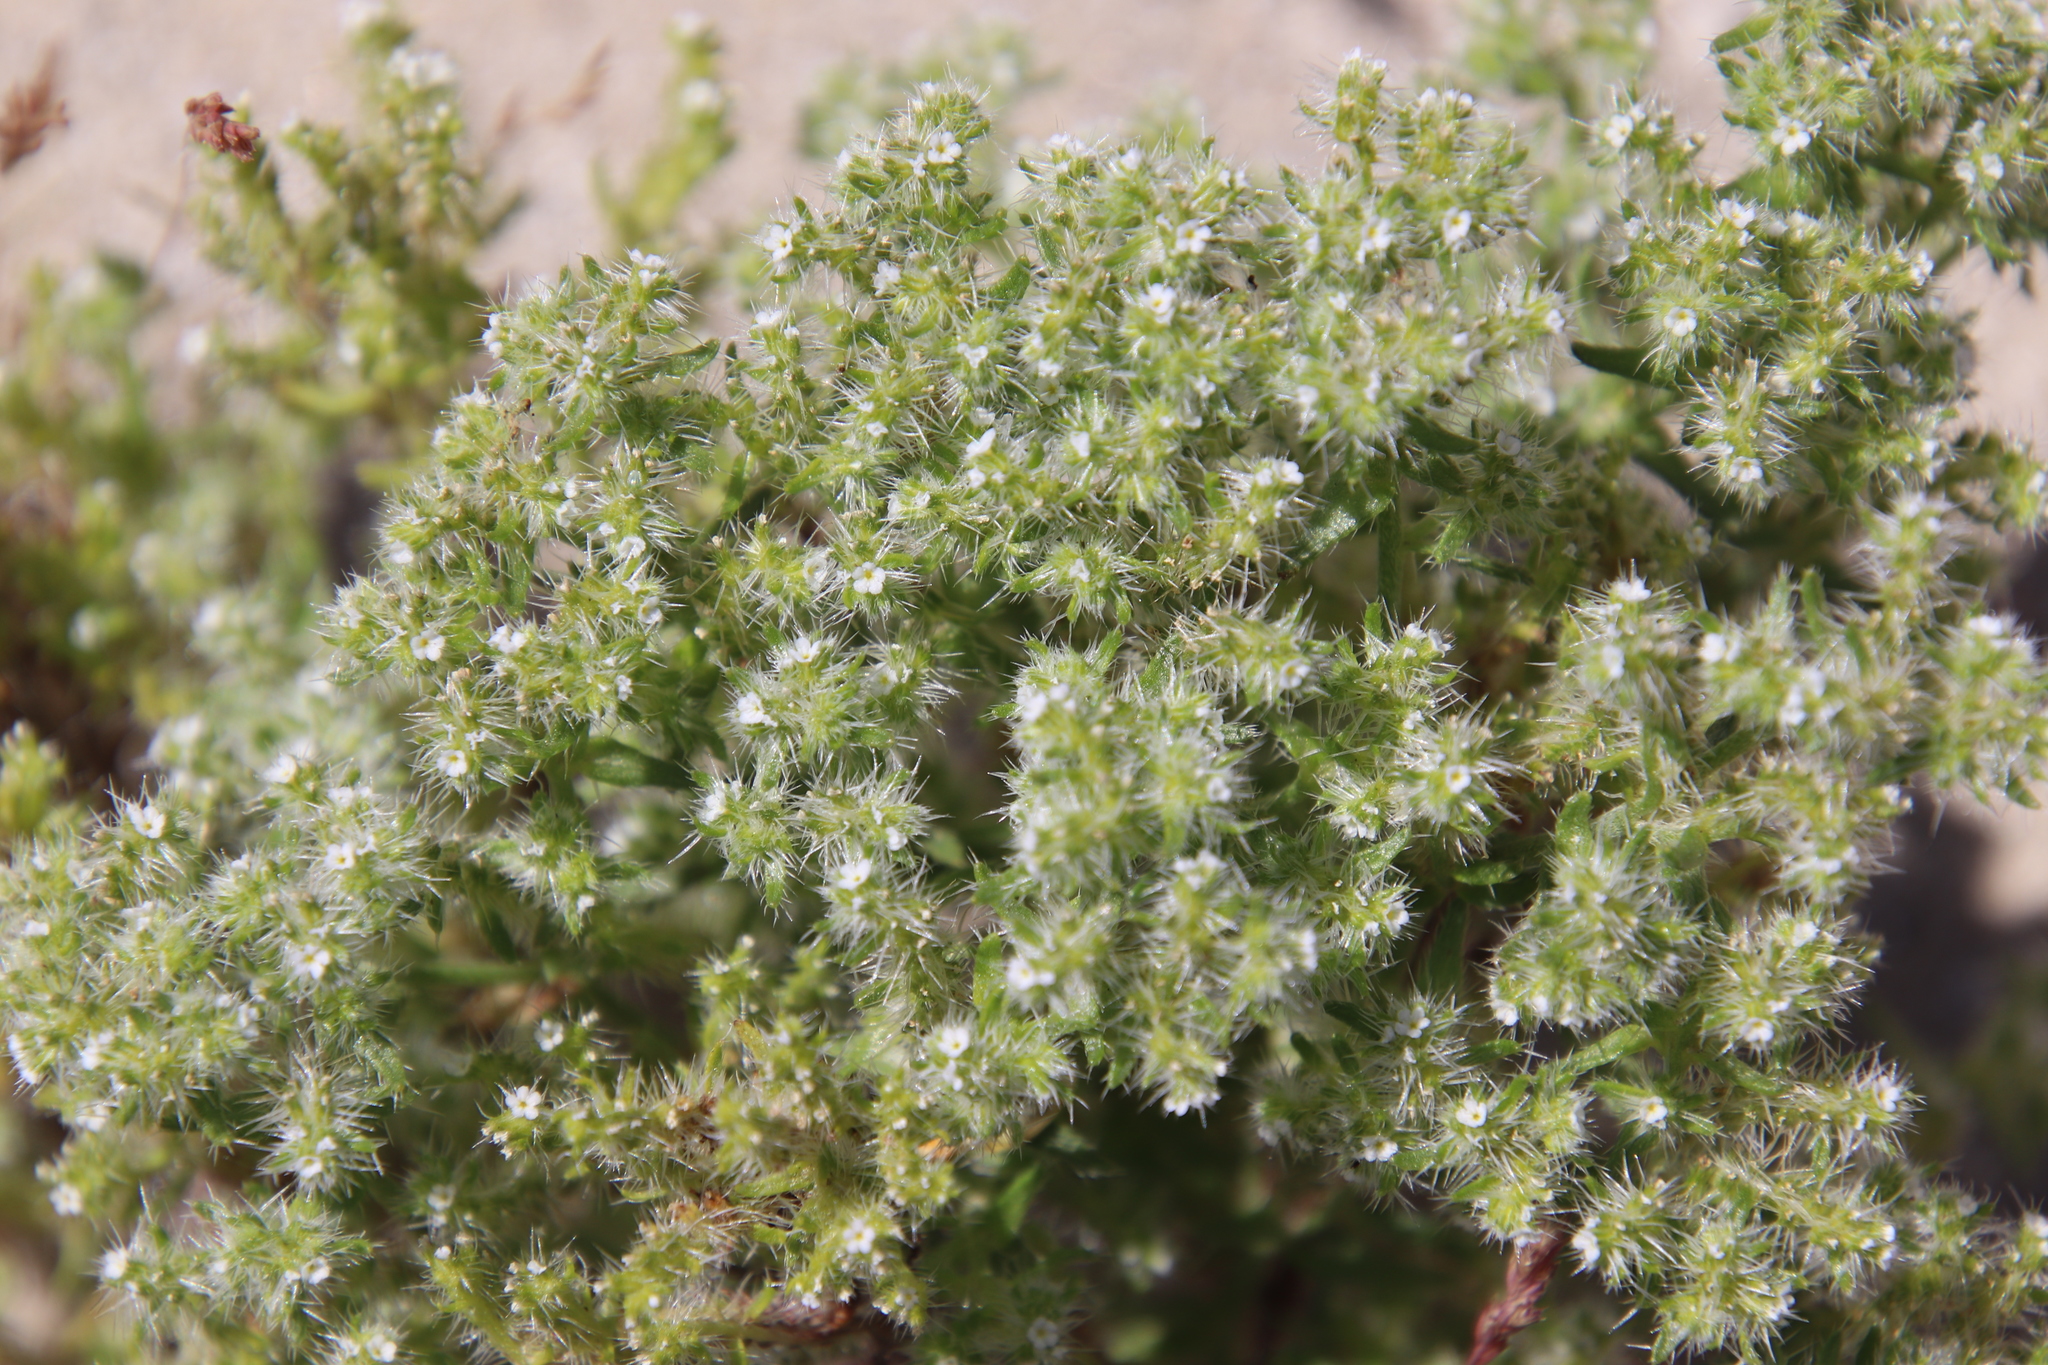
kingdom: Plantae
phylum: Tracheophyta
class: Magnoliopsida
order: Boraginales
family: Boraginaceae
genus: Cryptantha
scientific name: Cryptantha maritima
